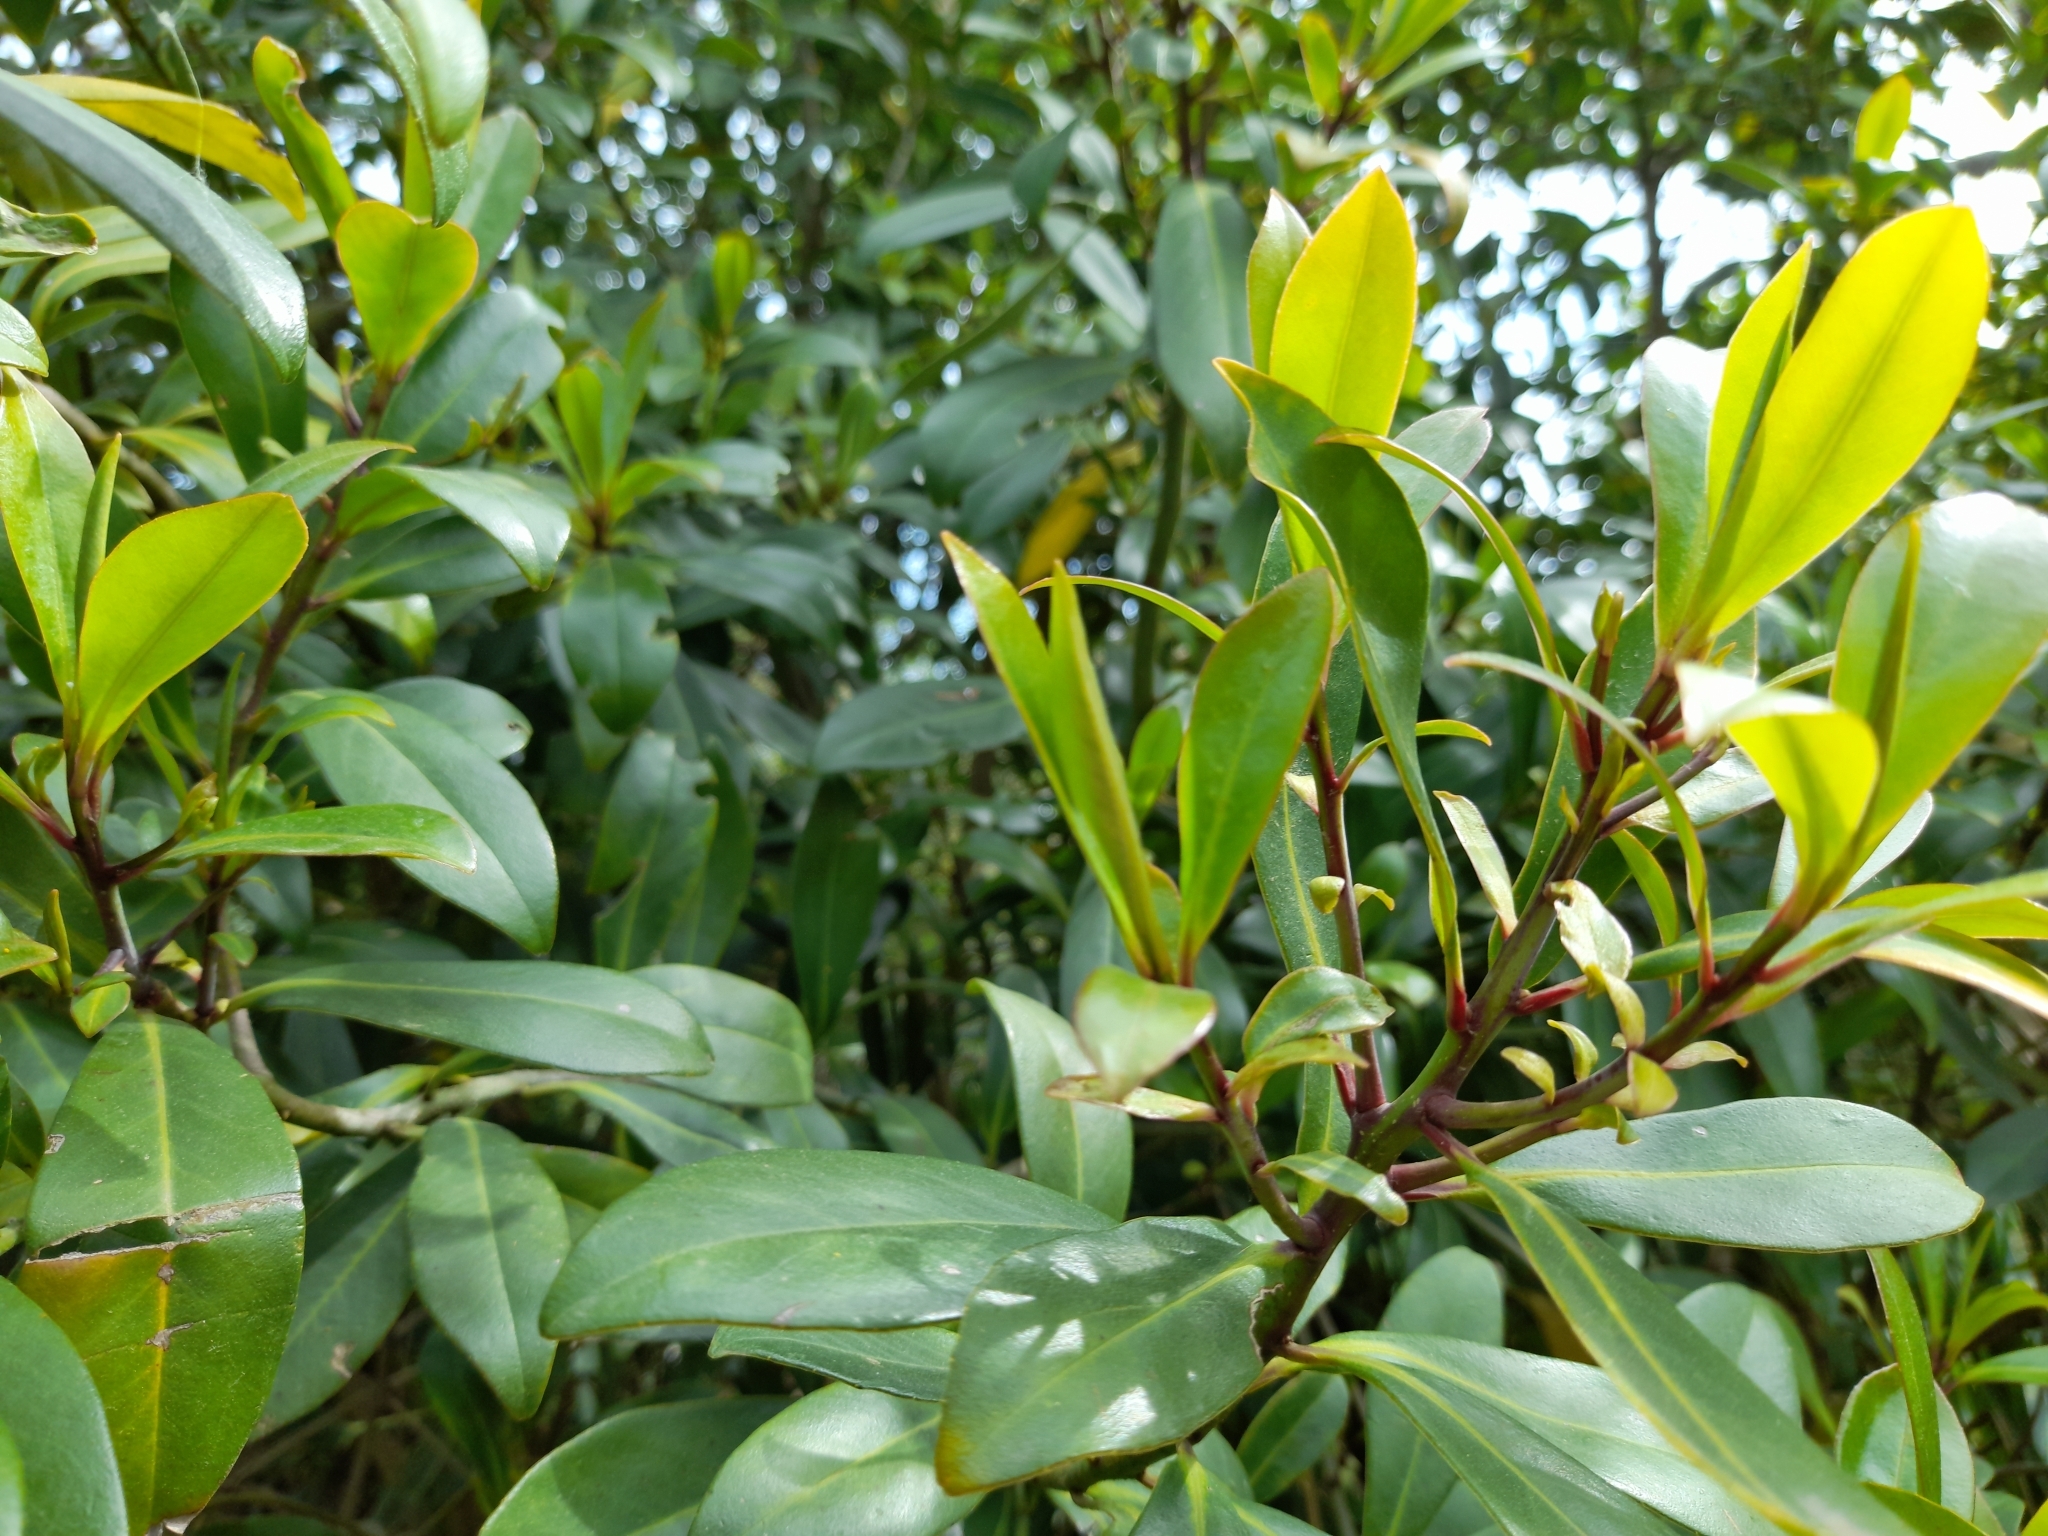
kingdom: Plantae
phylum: Tracheophyta
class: Magnoliopsida
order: Ericales
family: Primulaceae
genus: Myrsine
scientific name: Myrsine lorentziana
